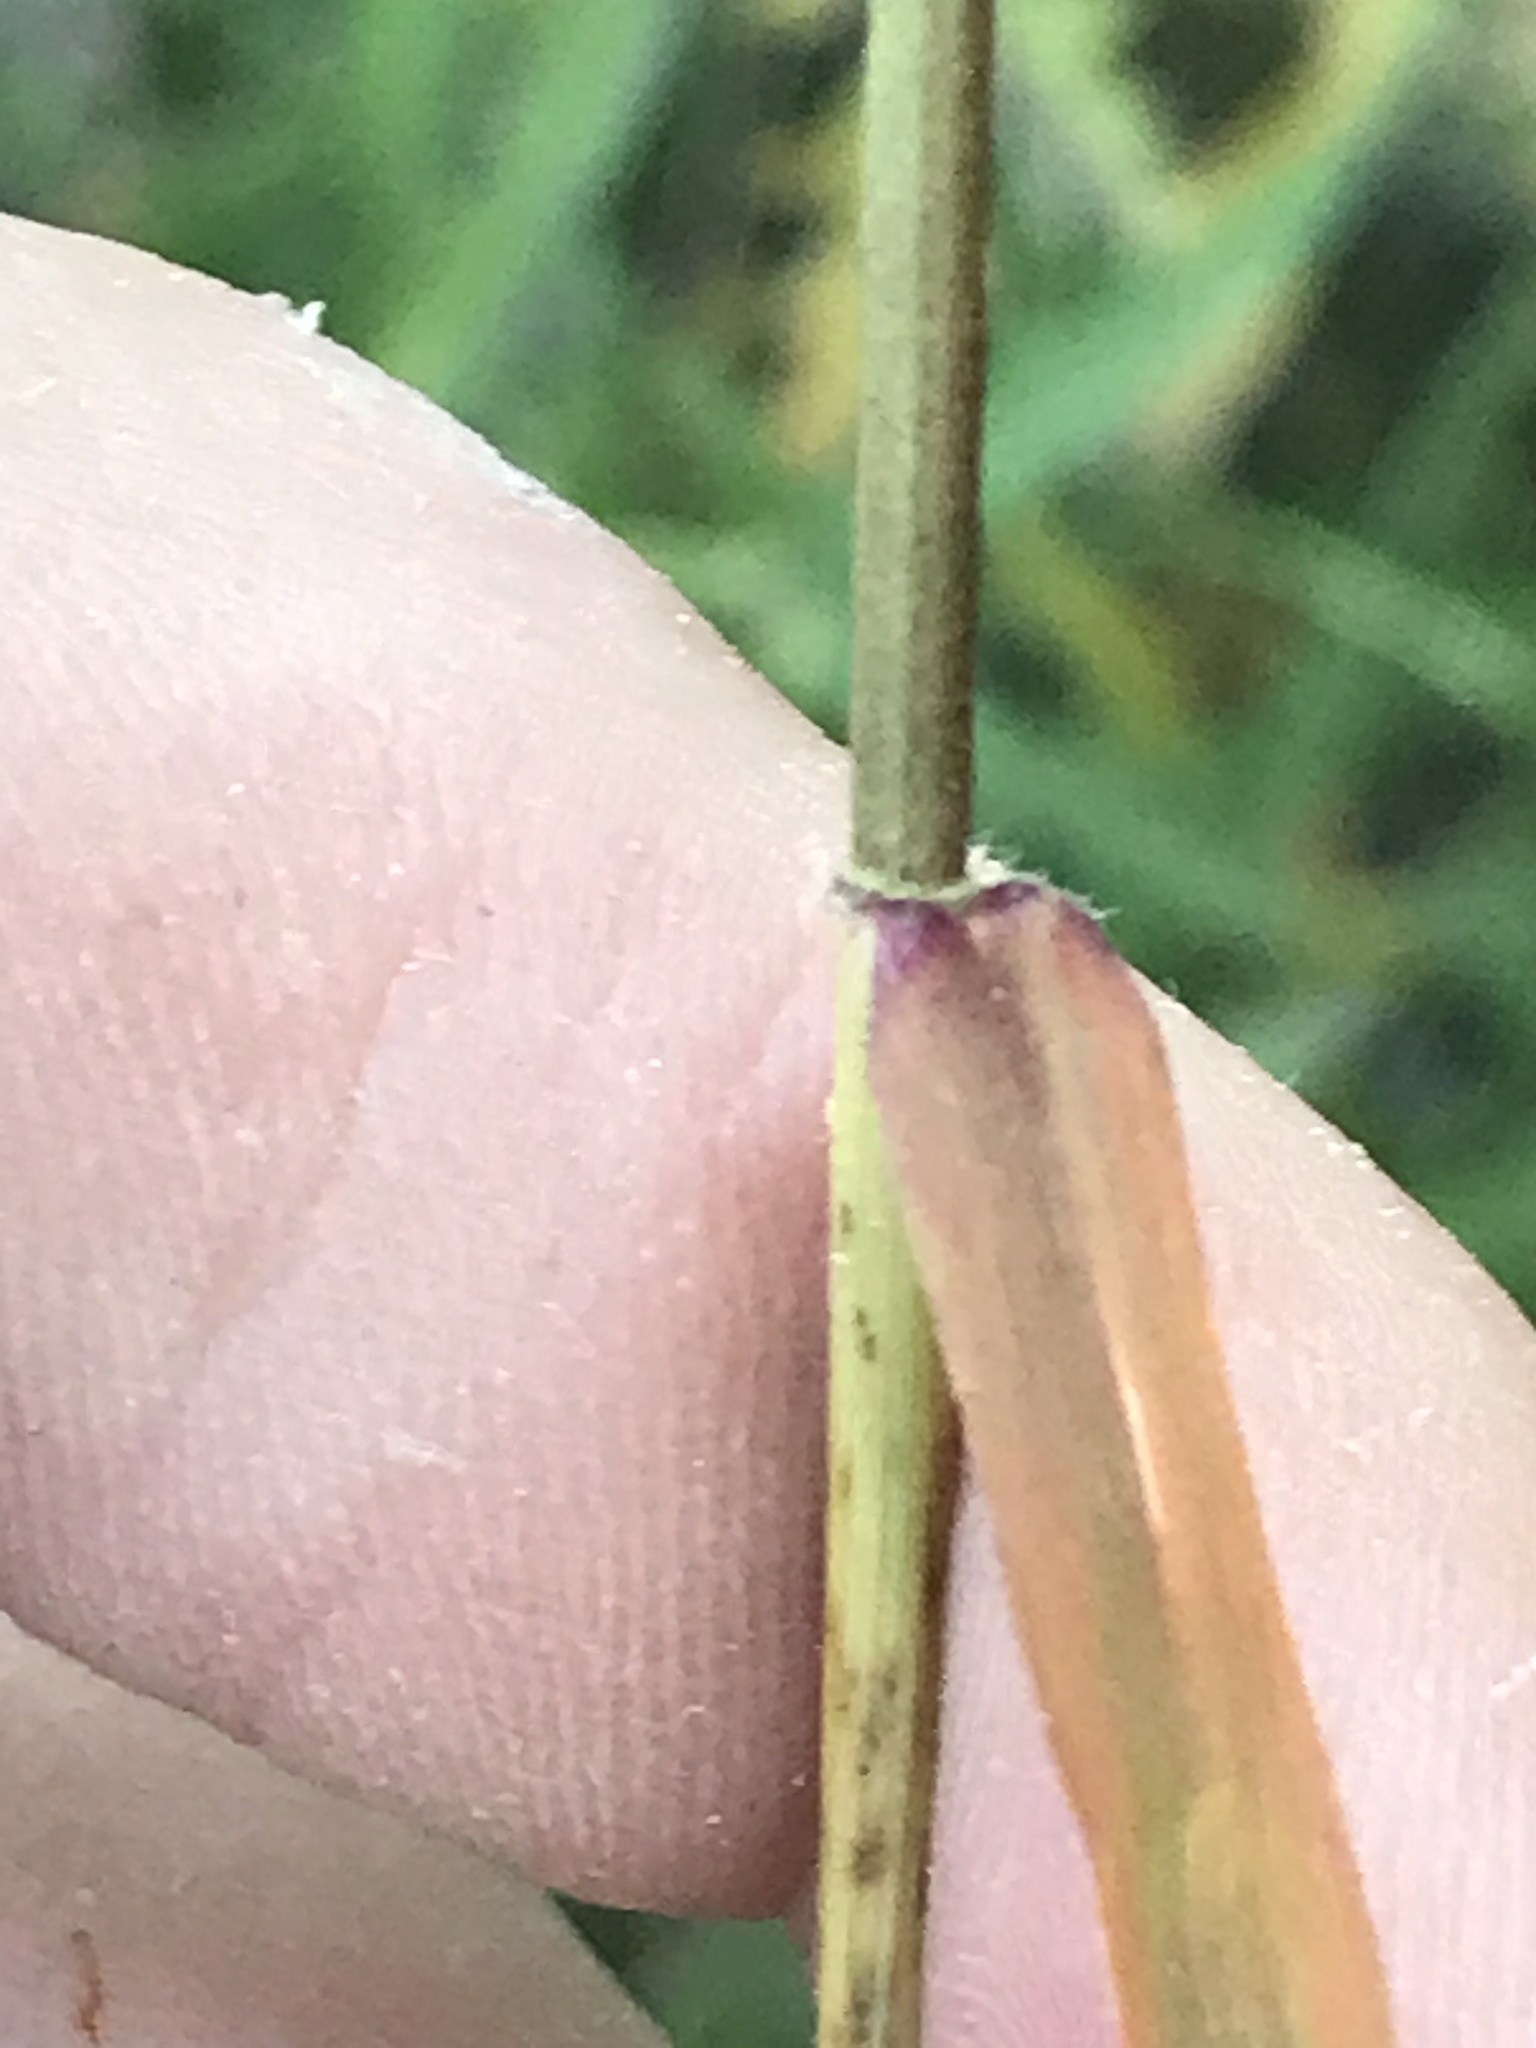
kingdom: Plantae
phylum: Tracheophyta
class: Liliopsida
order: Poales
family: Poaceae
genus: Tridens
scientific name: Tridens flavus
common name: Purpletop
